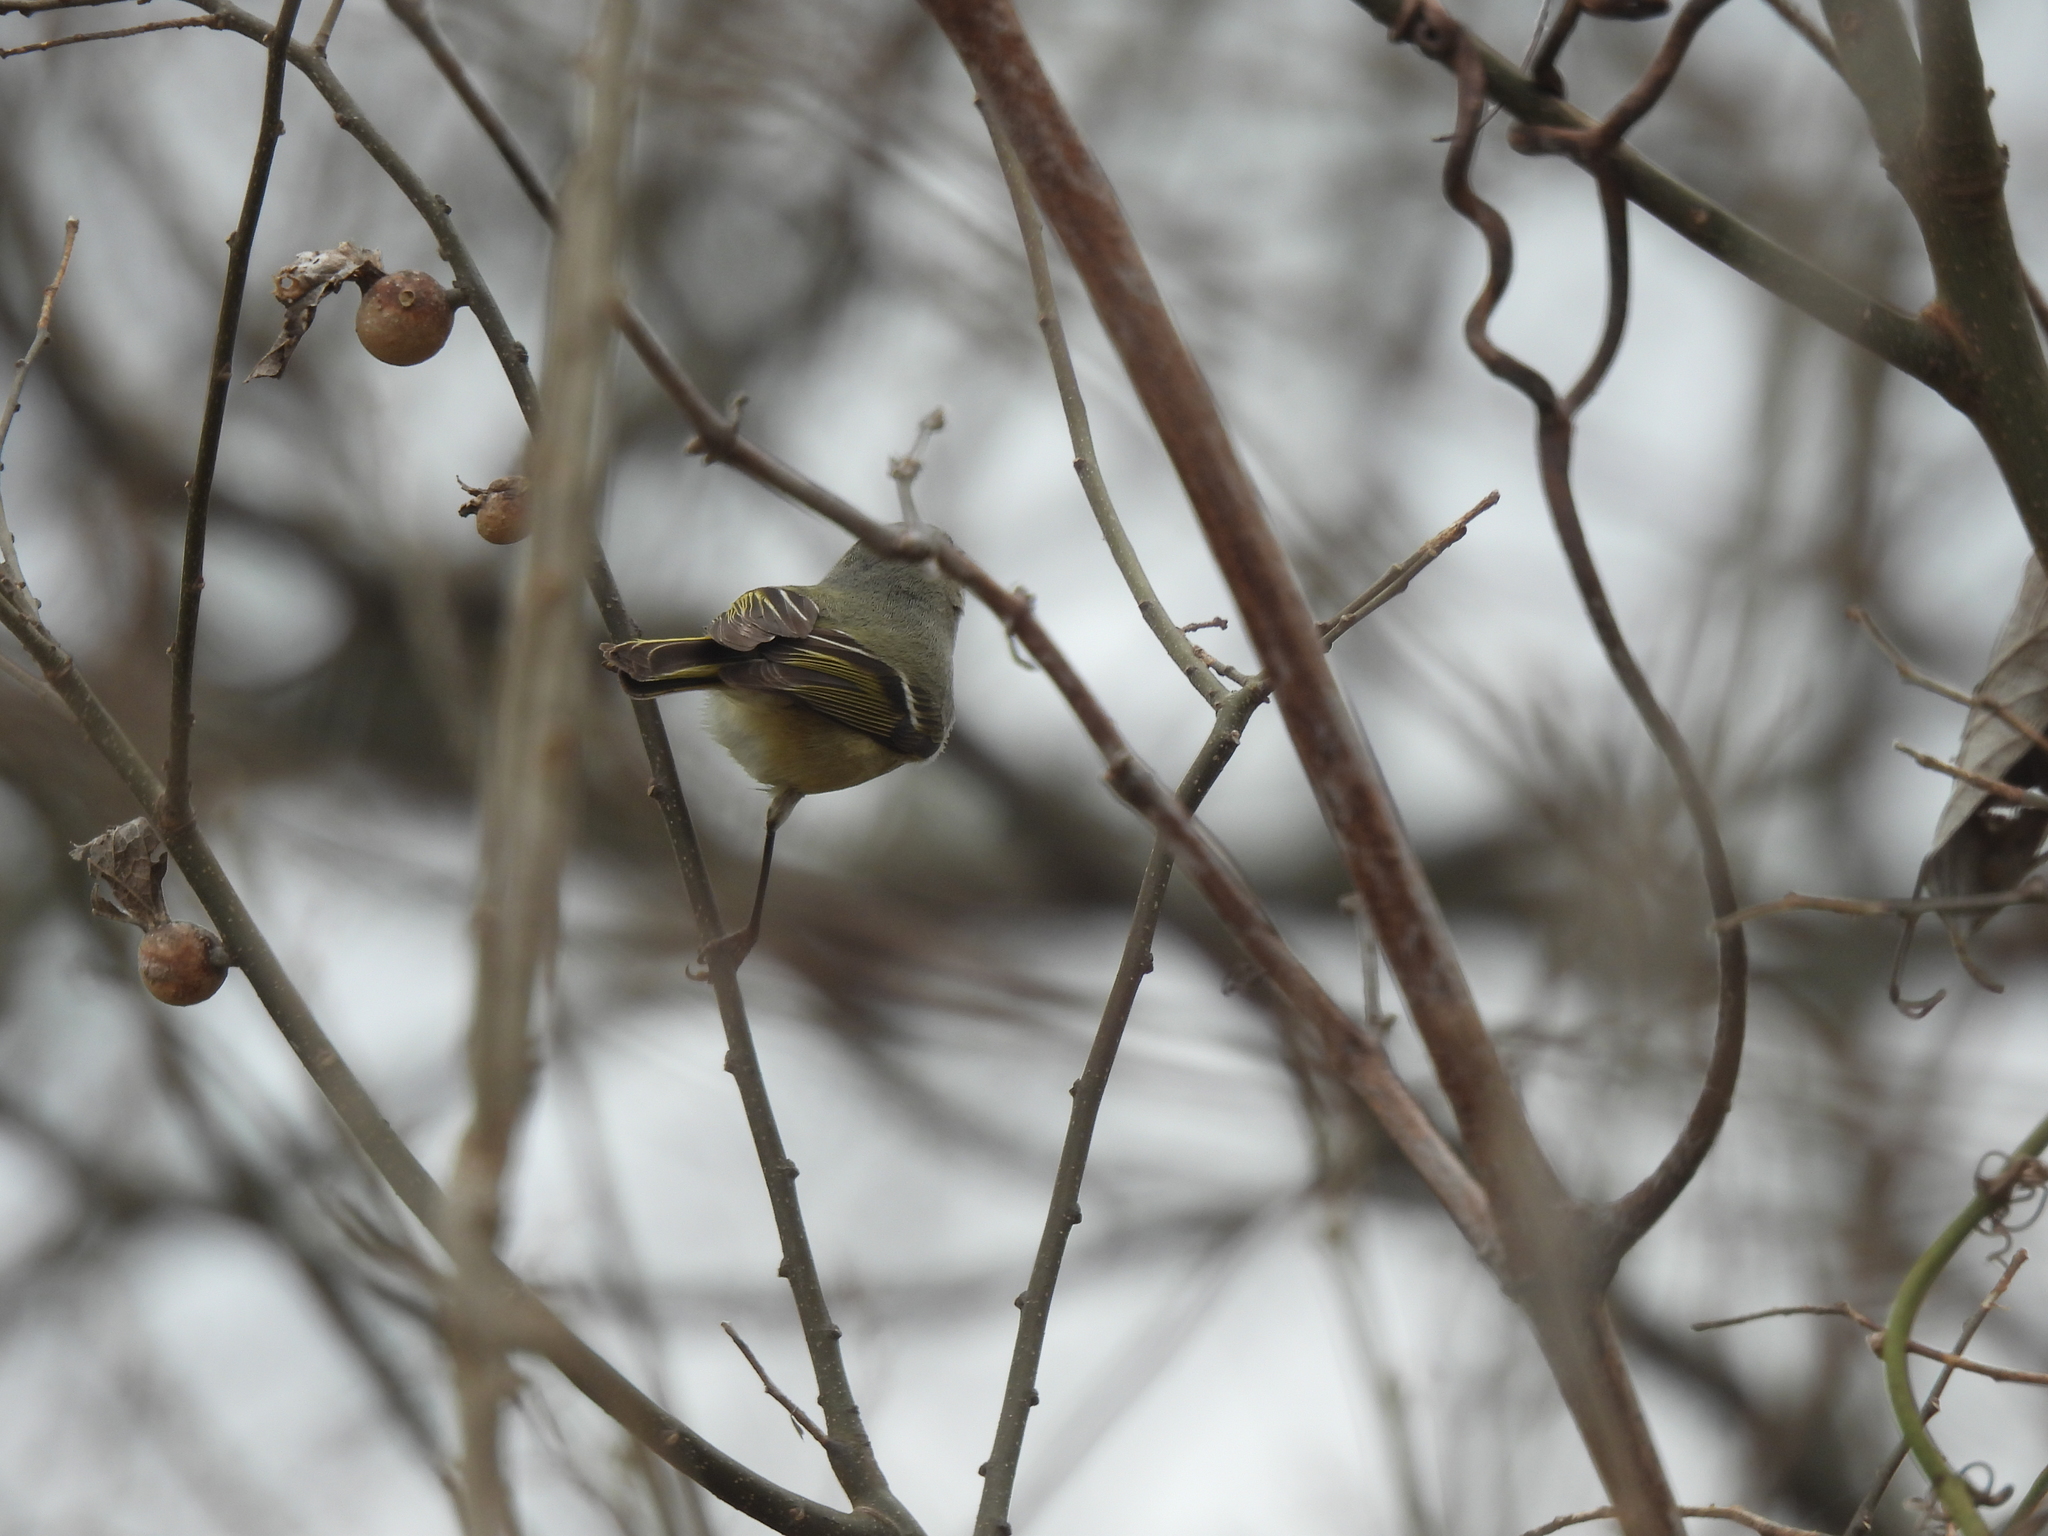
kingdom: Animalia
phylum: Chordata
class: Aves
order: Passeriformes
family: Regulidae
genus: Regulus
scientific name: Regulus calendula
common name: Ruby-crowned kinglet
